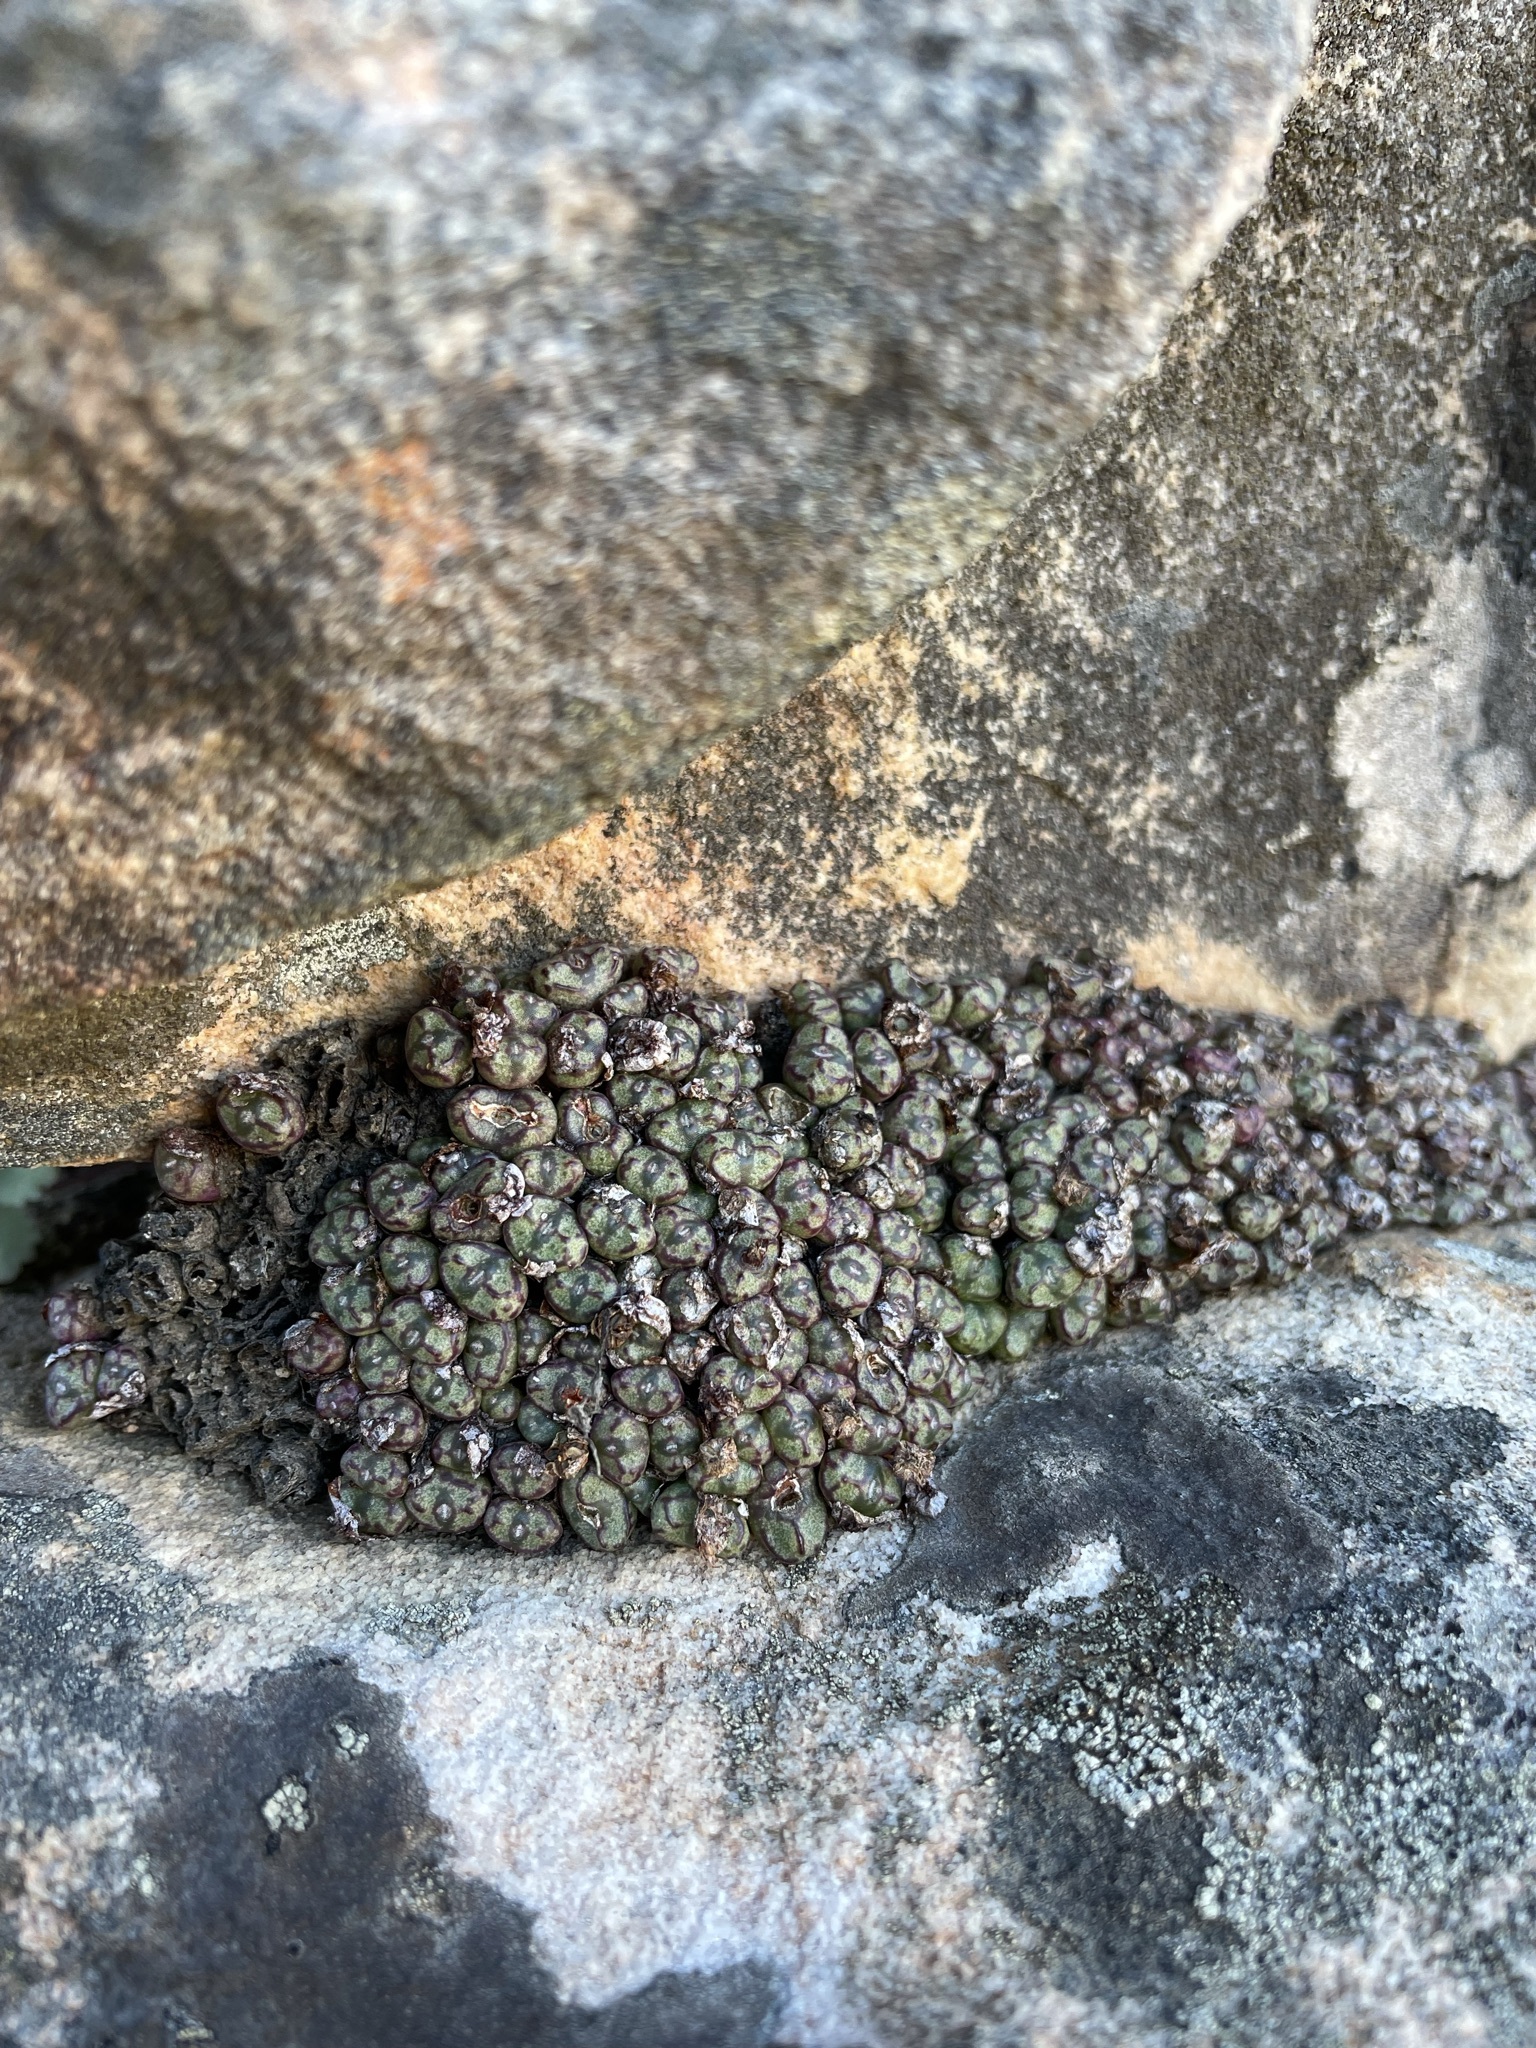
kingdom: Plantae
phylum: Tracheophyta
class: Magnoliopsida
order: Caryophyllales
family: Aizoaceae
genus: Conophytum
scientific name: Conophytum luckhoffii
